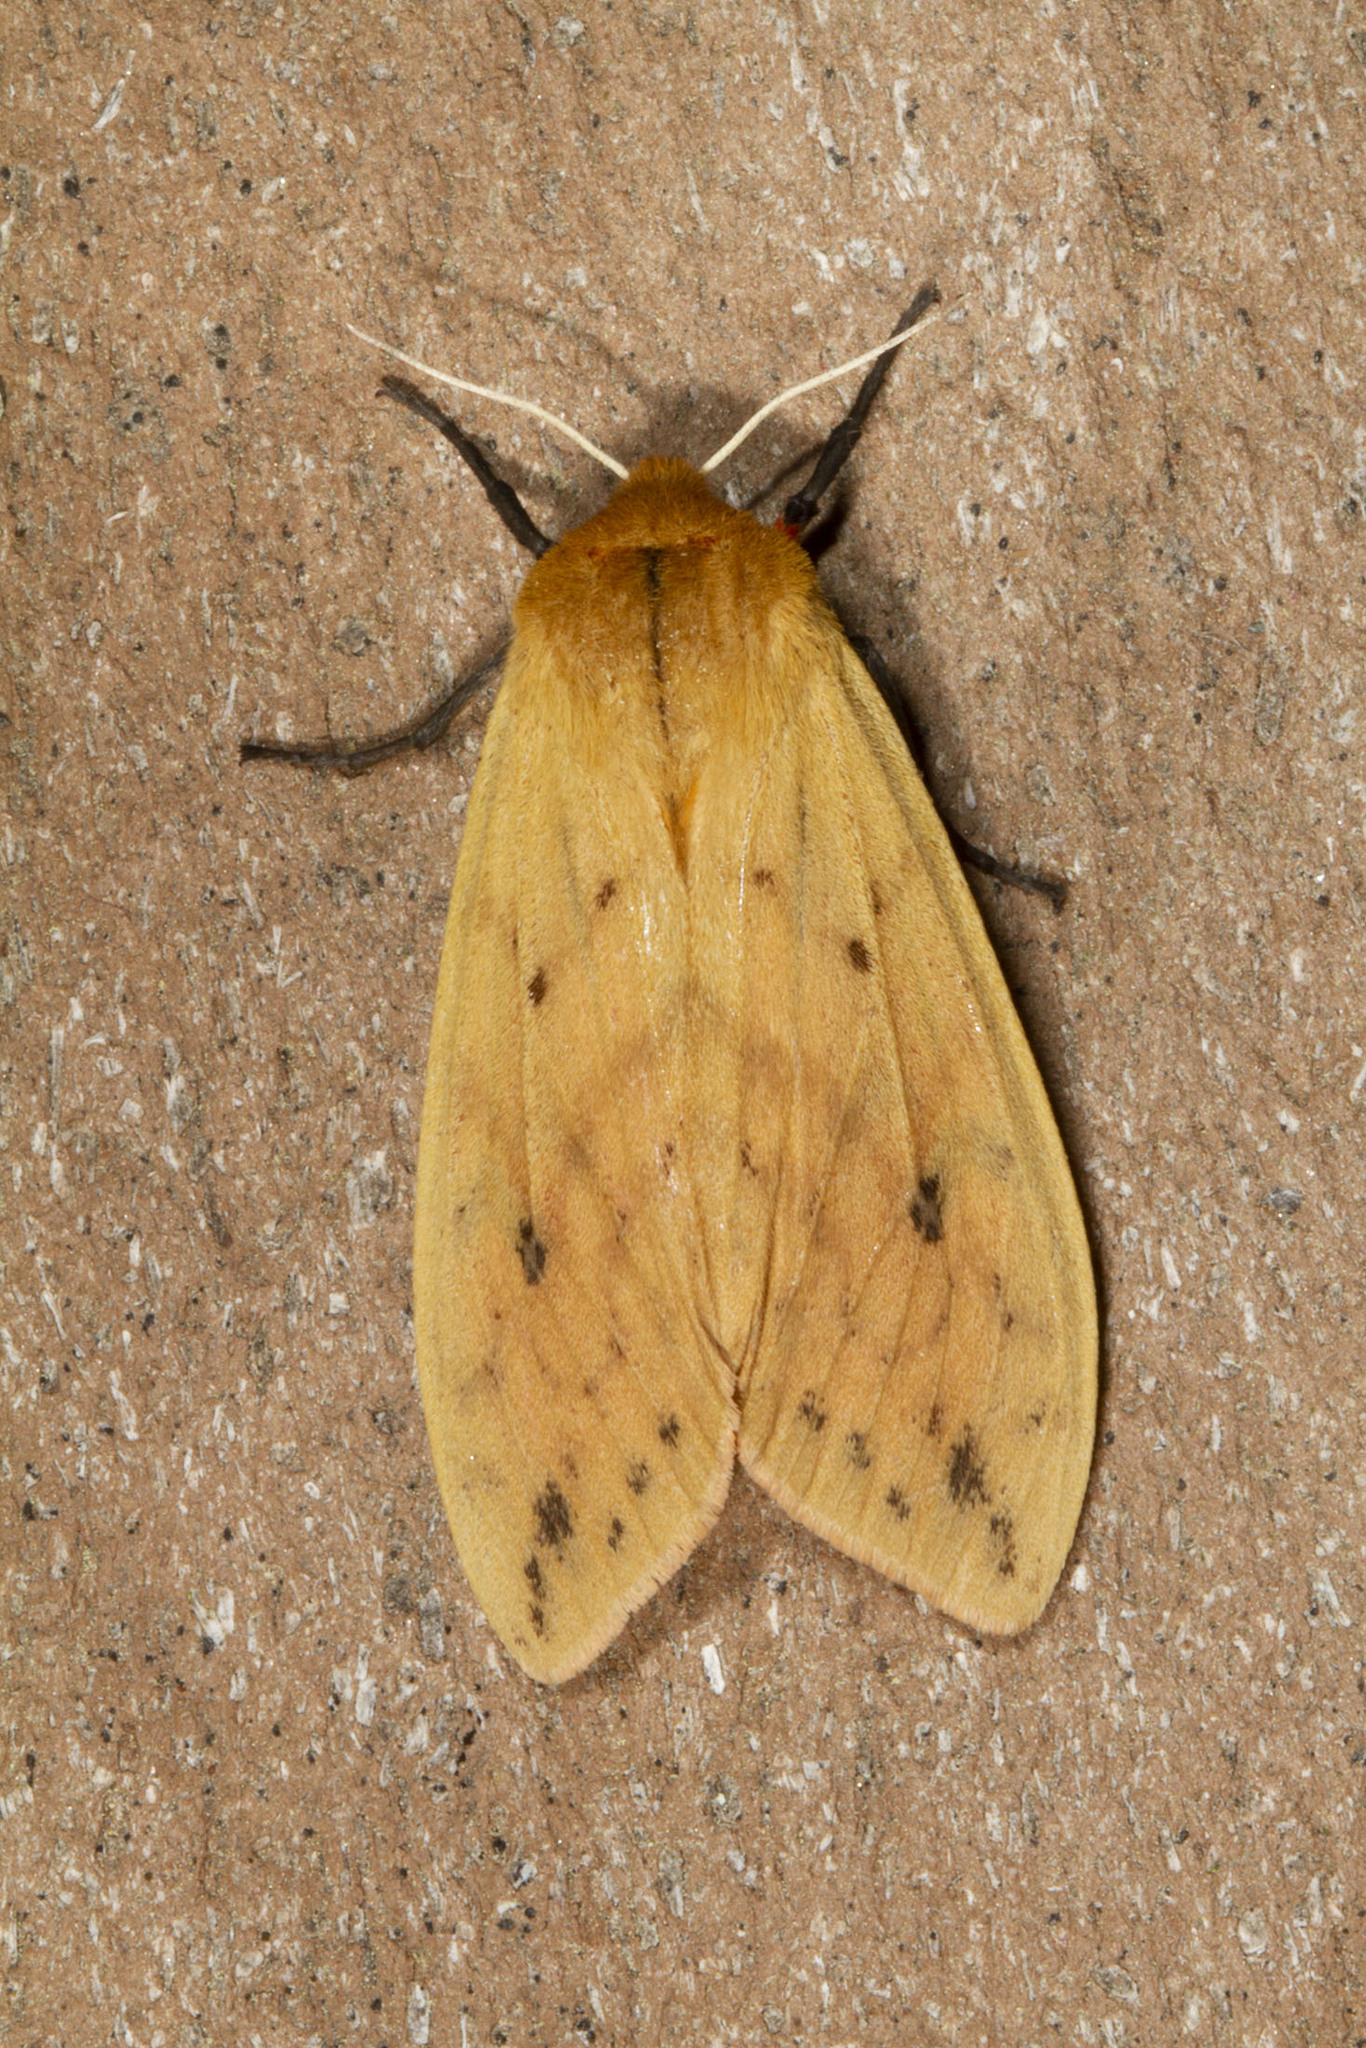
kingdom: Animalia
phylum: Arthropoda
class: Insecta
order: Lepidoptera
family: Erebidae
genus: Pyrrharctia
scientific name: Pyrrharctia isabella
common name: Isabella tiger moth
